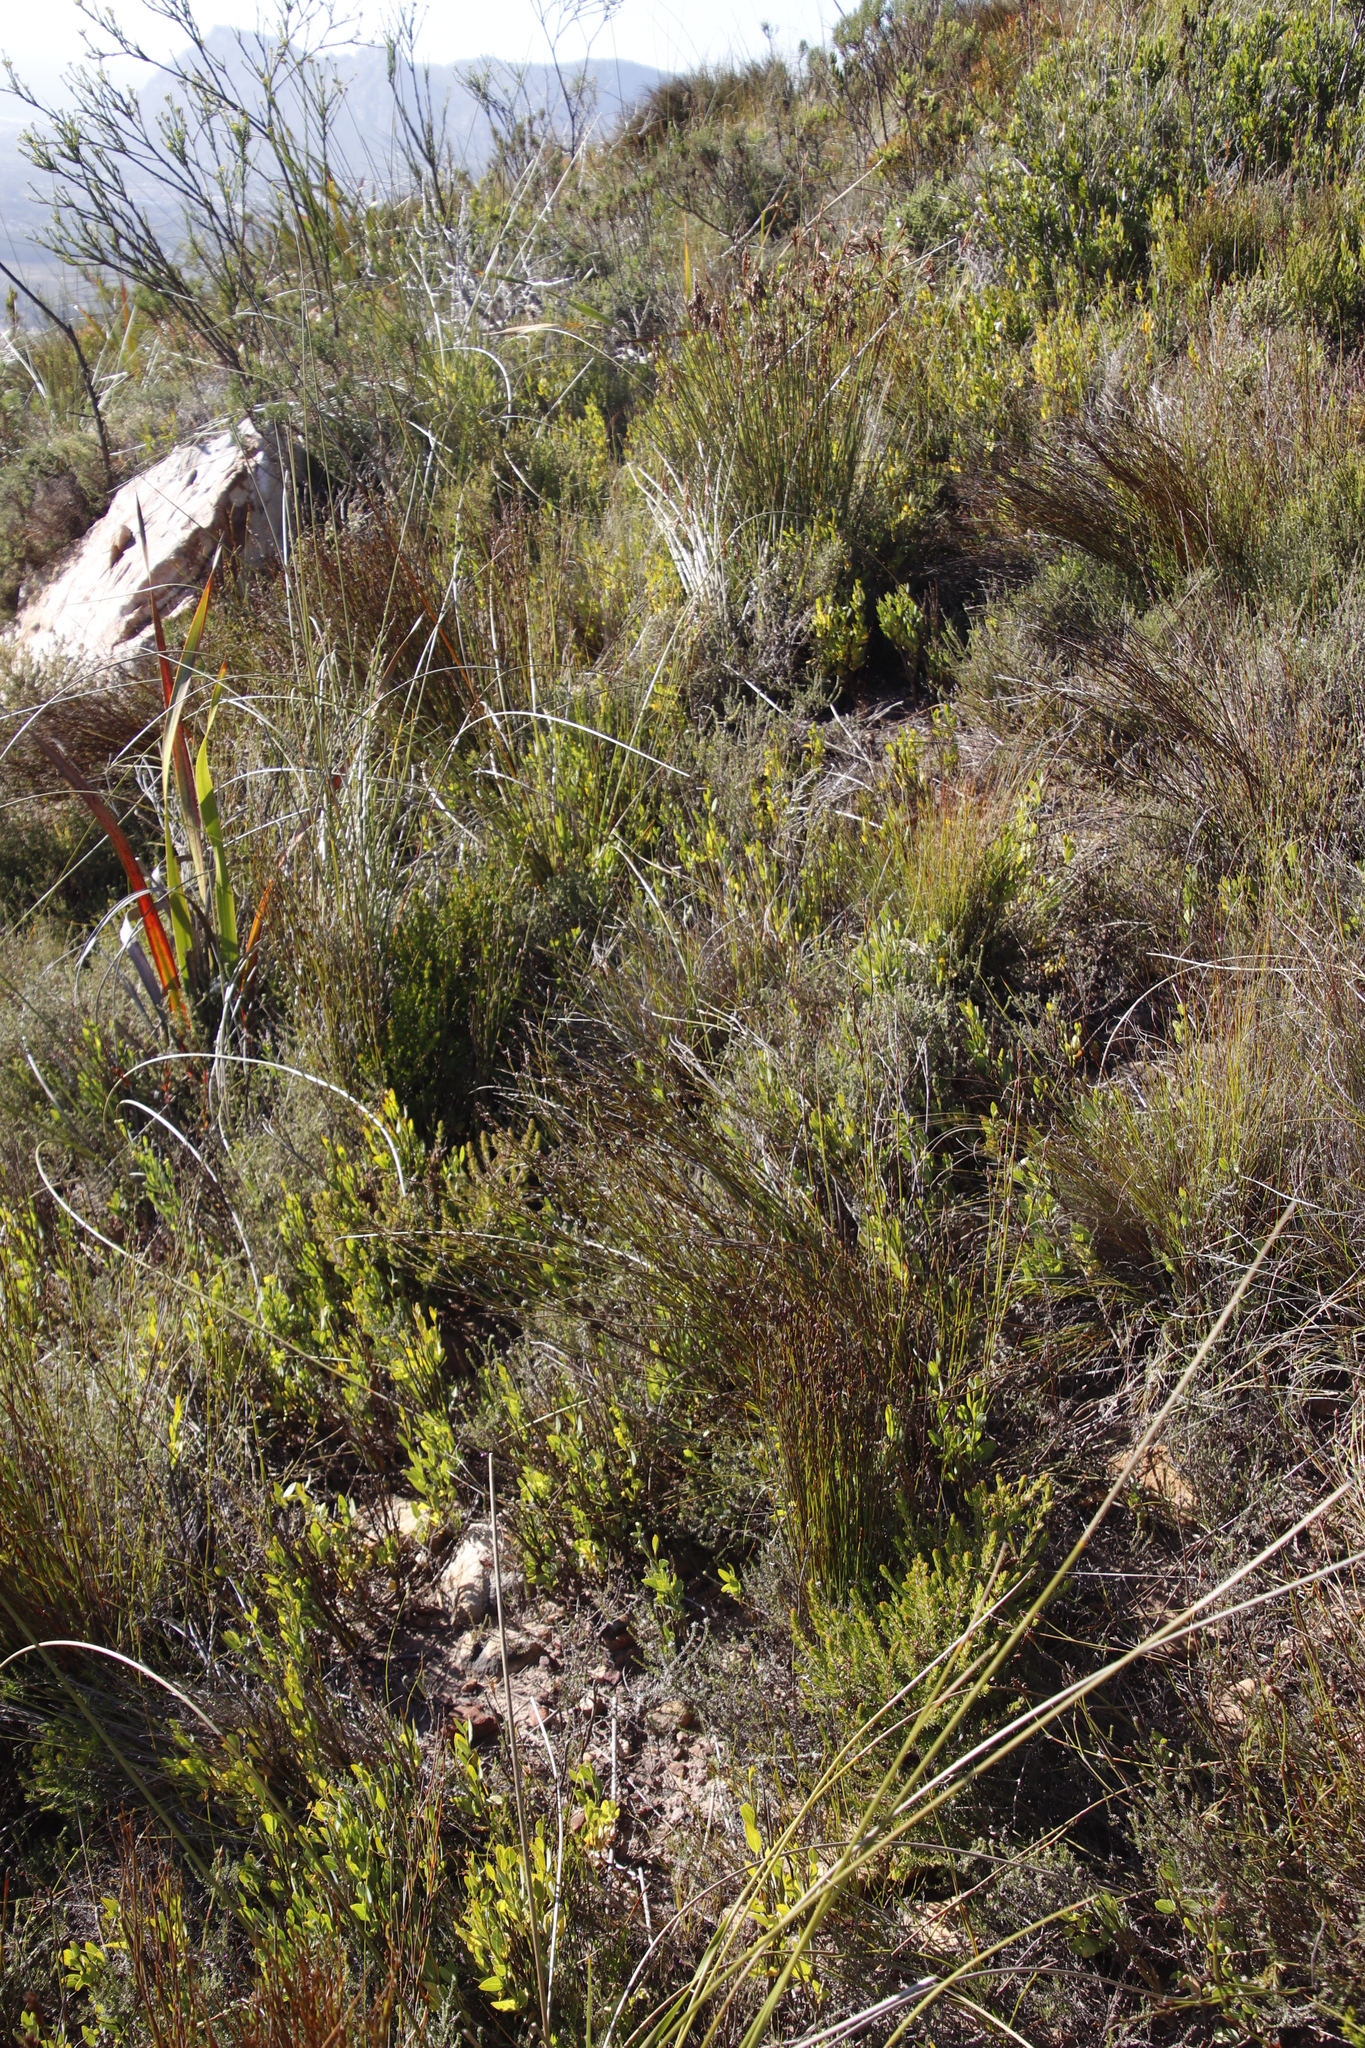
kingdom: Plantae
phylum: Tracheophyta
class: Magnoliopsida
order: Solanales
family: Montiniaceae
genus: Montinia
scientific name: Montinia caryophyllacea
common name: Wild clove-bush
